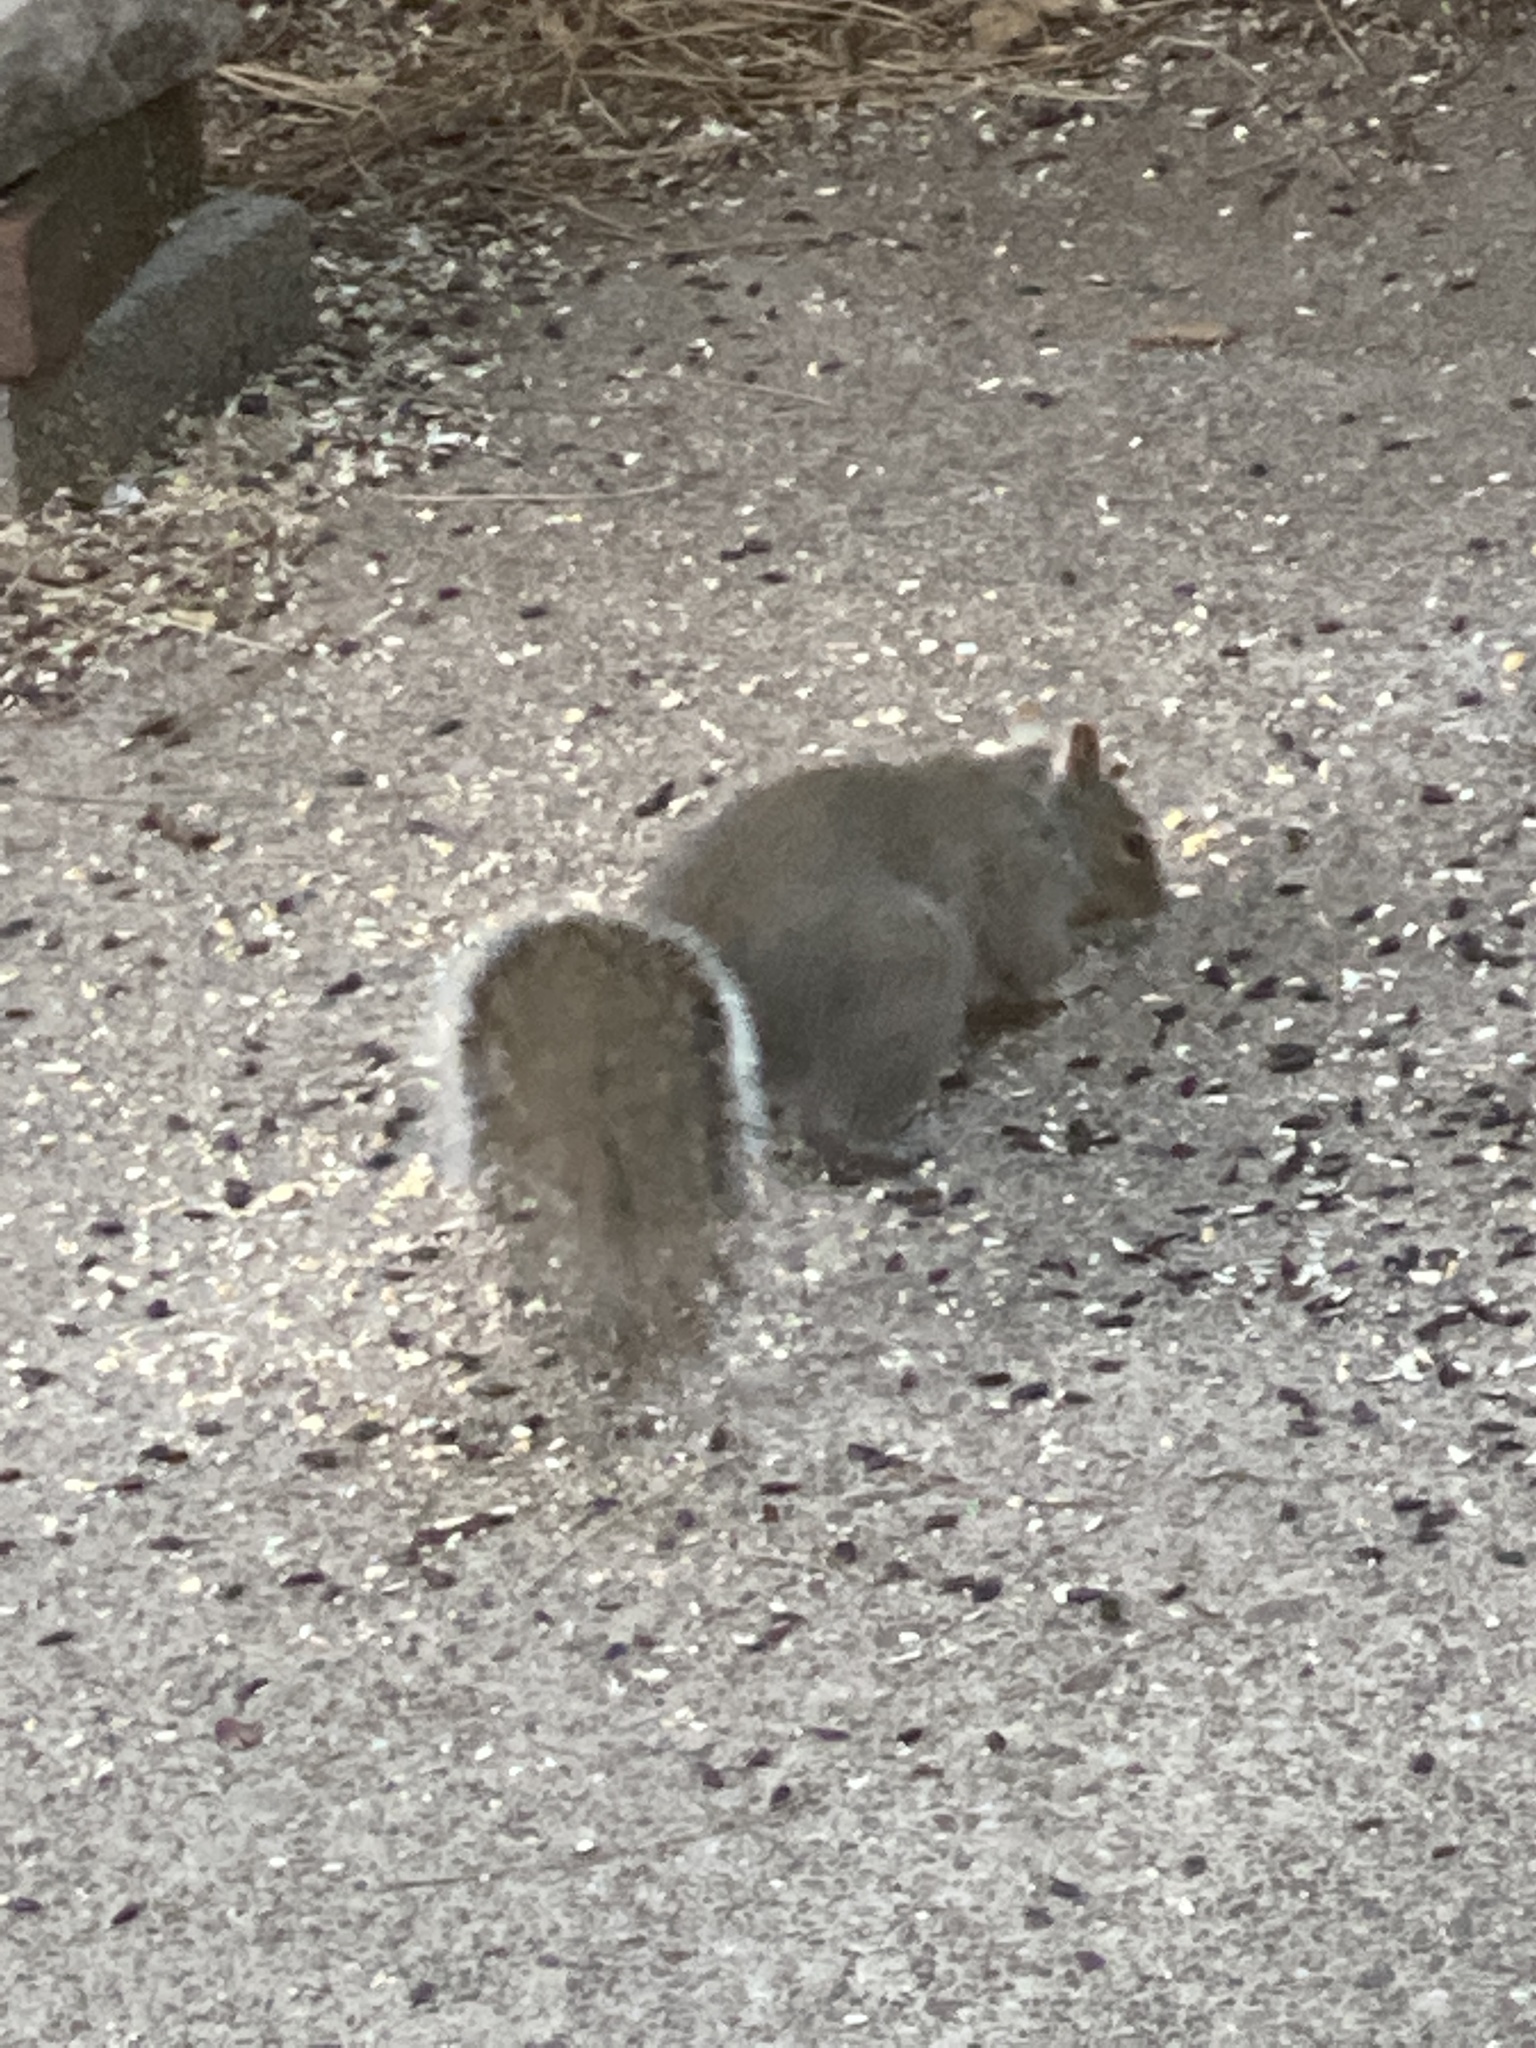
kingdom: Animalia
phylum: Chordata
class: Mammalia
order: Rodentia
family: Sciuridae
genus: Sciurus
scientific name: Sciurus carolinensis
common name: Eastern gray squirrel
